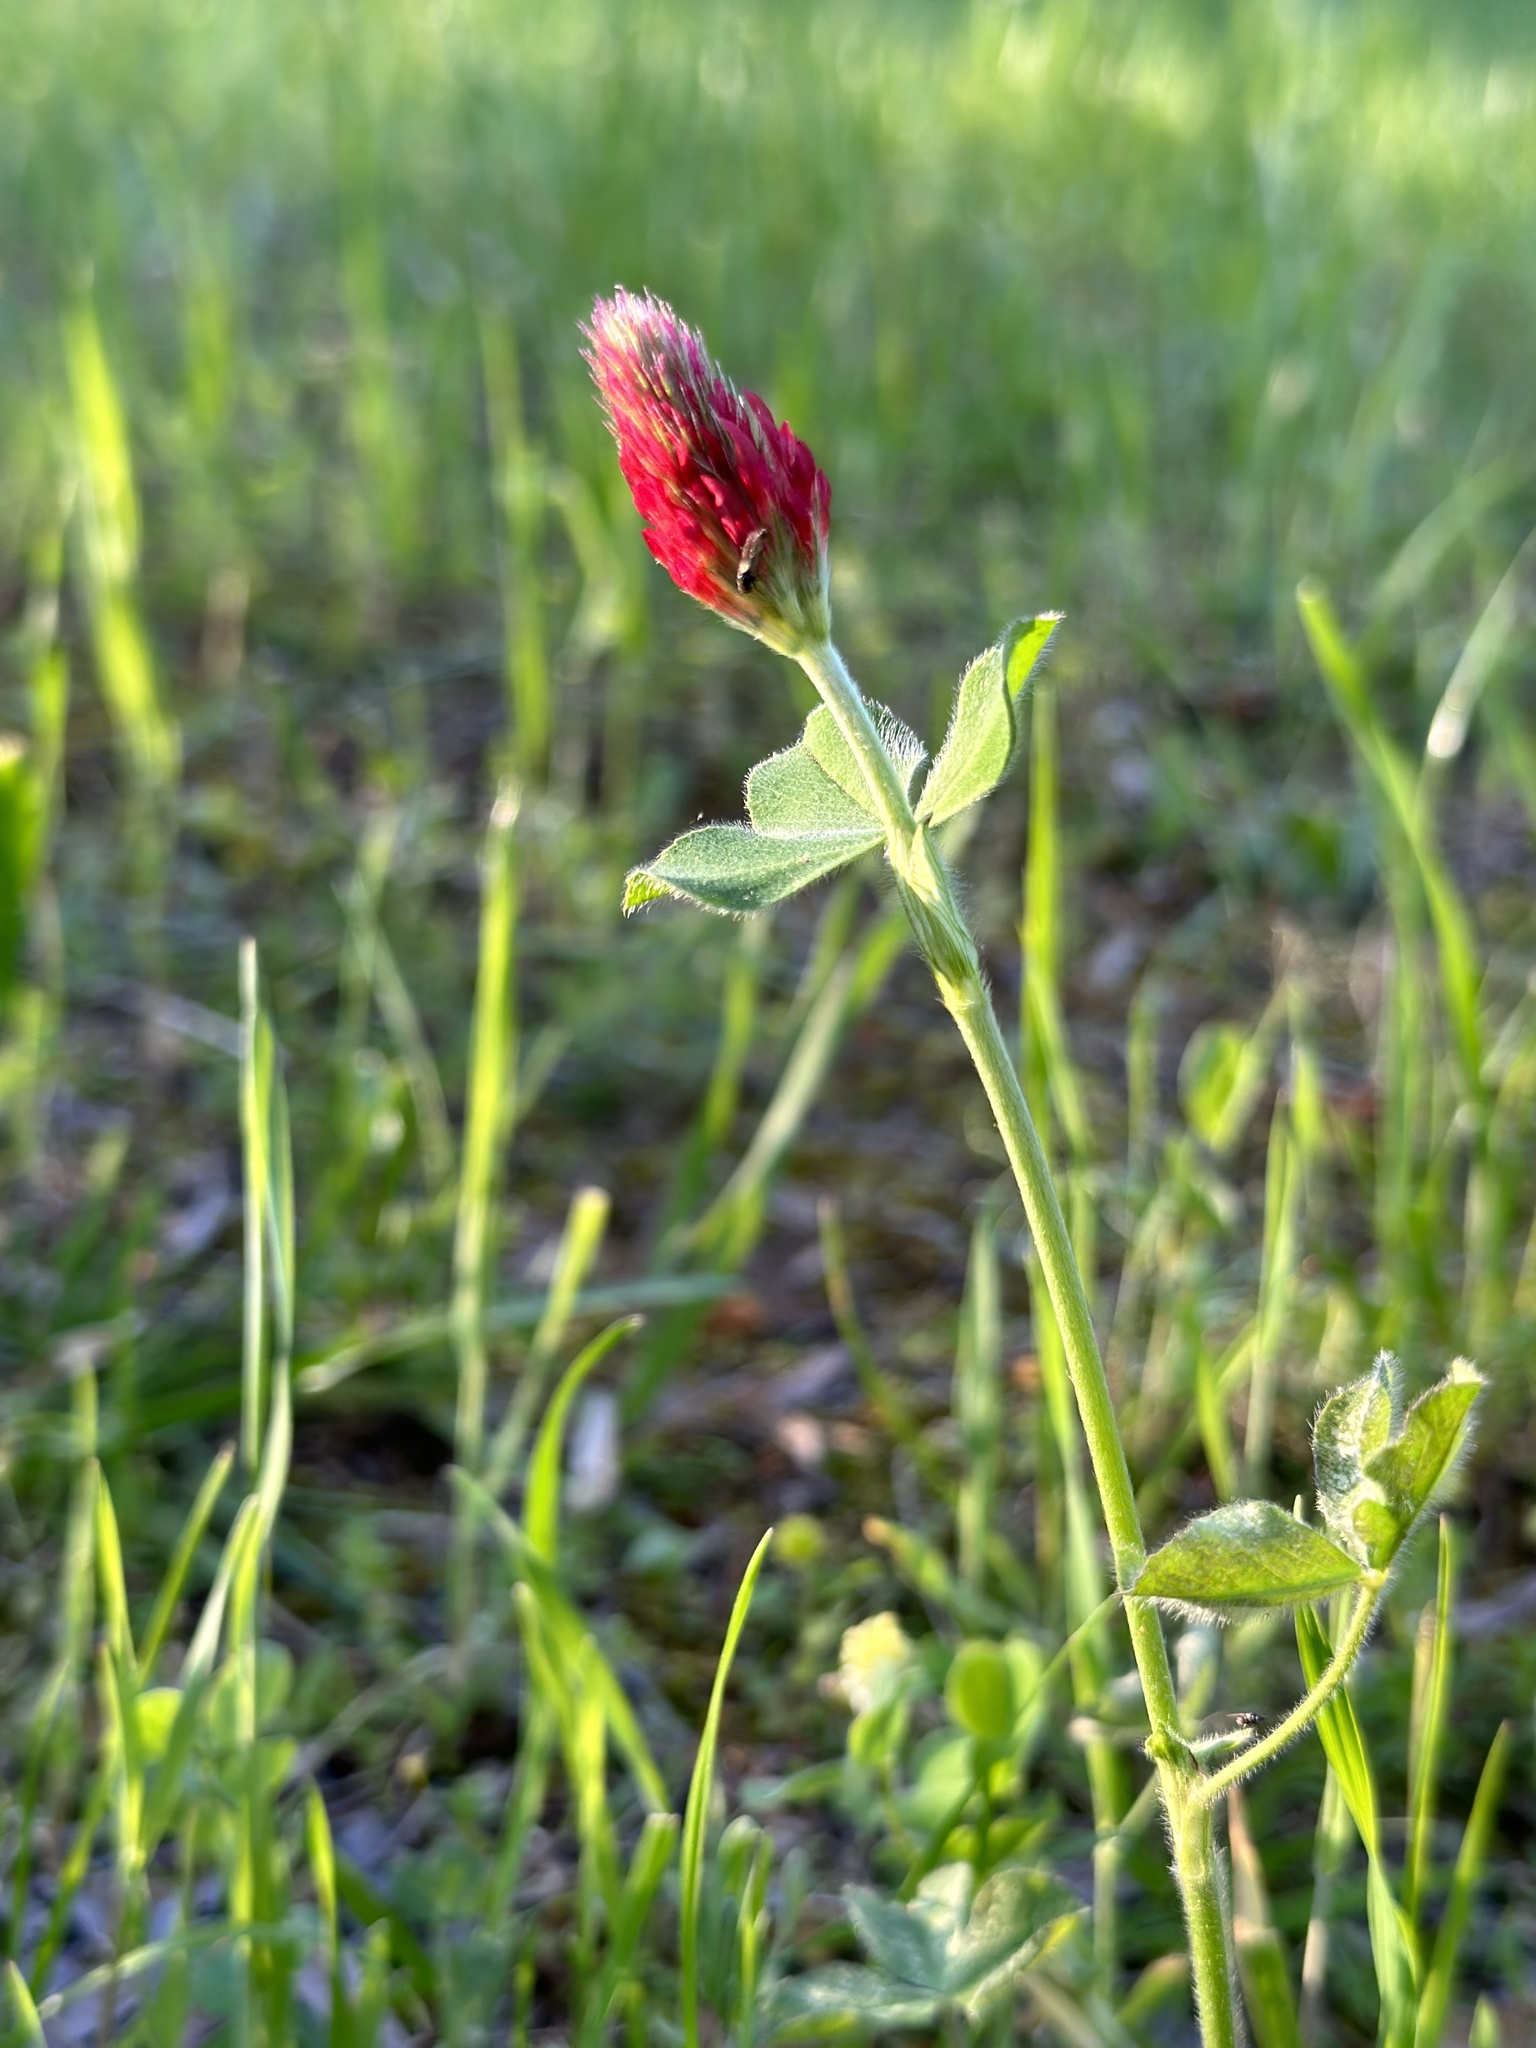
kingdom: Plantae
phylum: Tracheophyta
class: Magnoliopsida
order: Fabales
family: Fabaceae
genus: Trifolium
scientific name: Trifolium incarnatum
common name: Crimson clover
